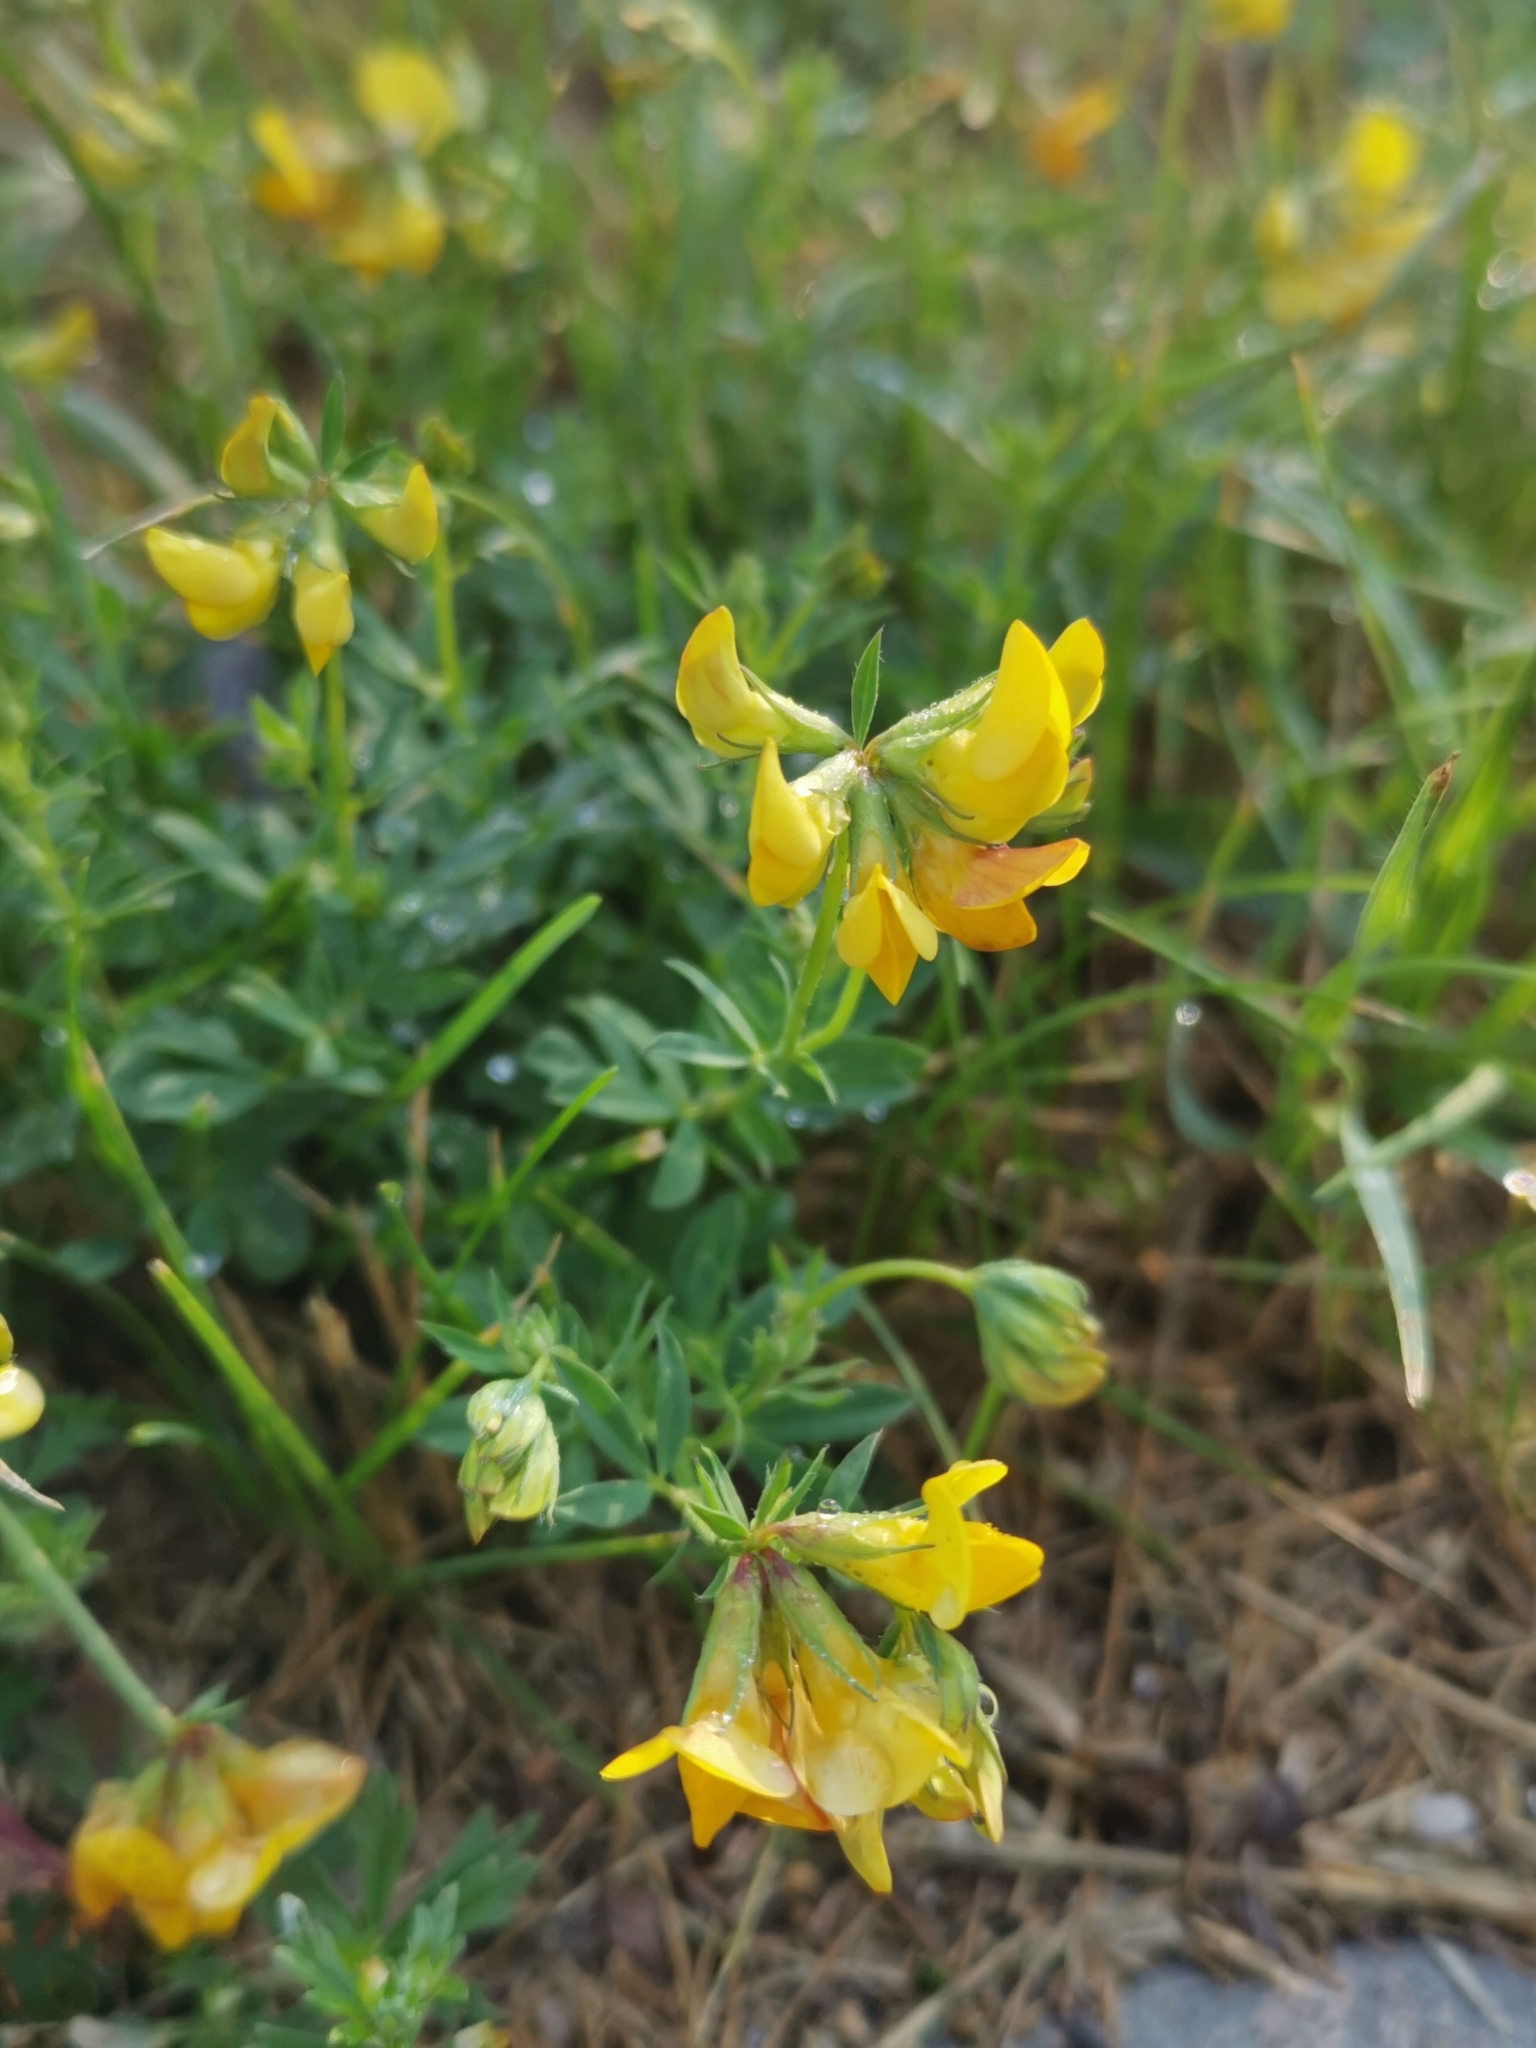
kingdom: Plantae
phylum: Tracheophyta
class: Magnoliopsida
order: Fabales
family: Fabaceae
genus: Lotus
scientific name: Lotus corniculatus
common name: Common bird's-foot-trefoil
